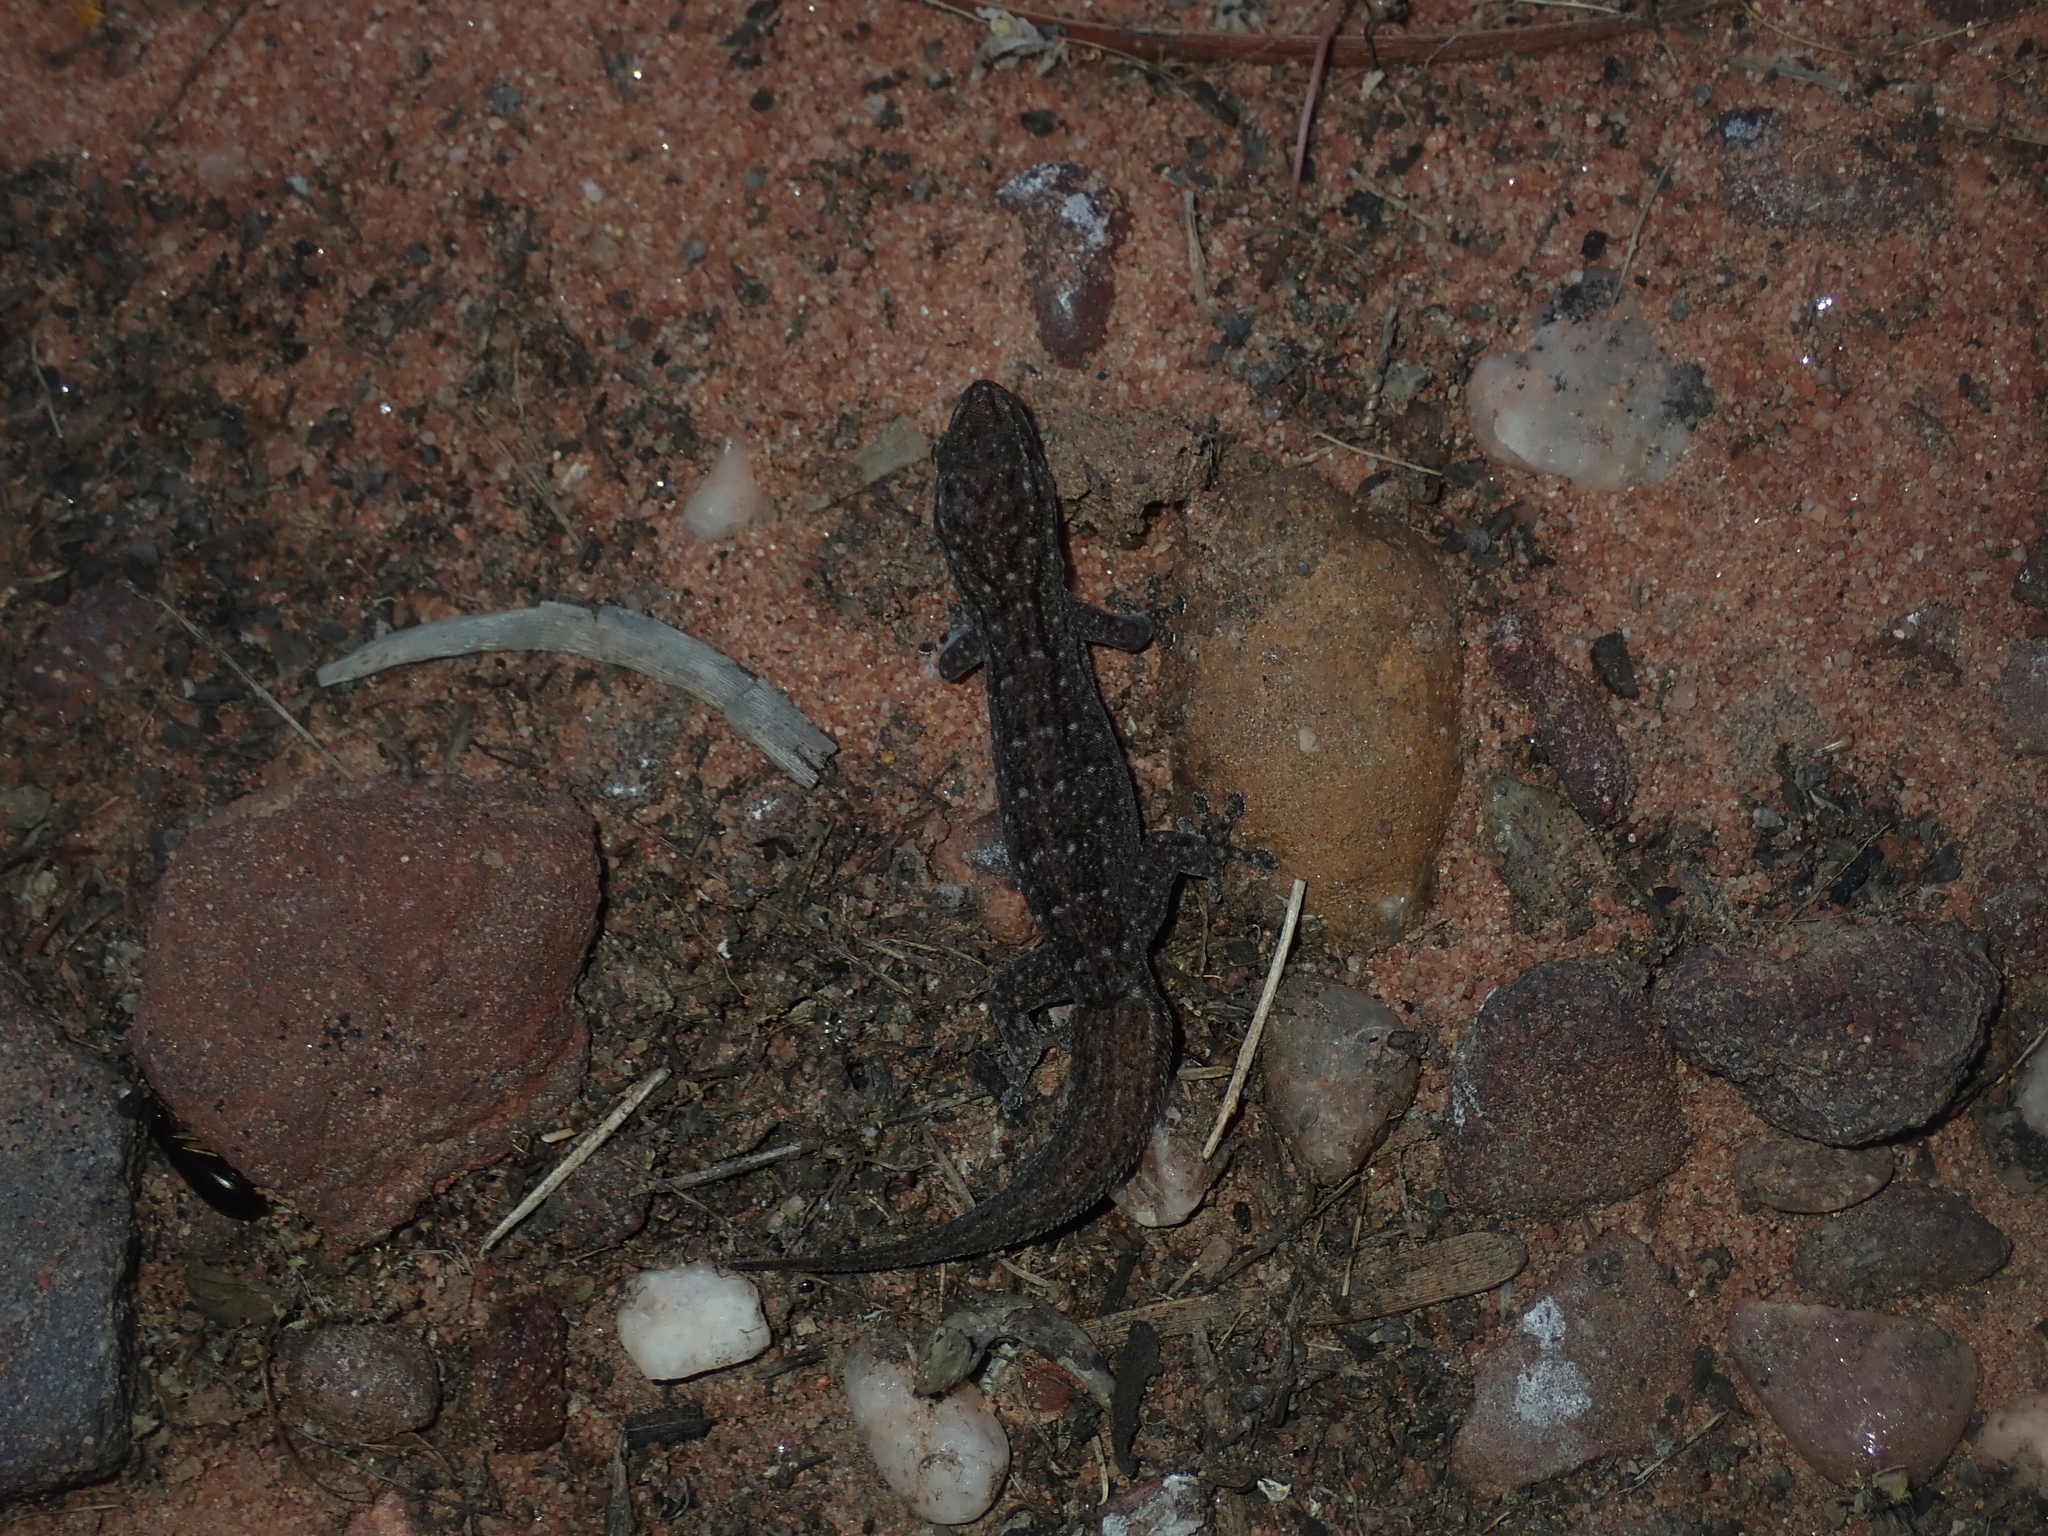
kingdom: Animalia
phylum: Chordata
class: Squamata
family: Gekkonidae
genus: Gehyra
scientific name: Gehyra variegata
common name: Tree dtella
